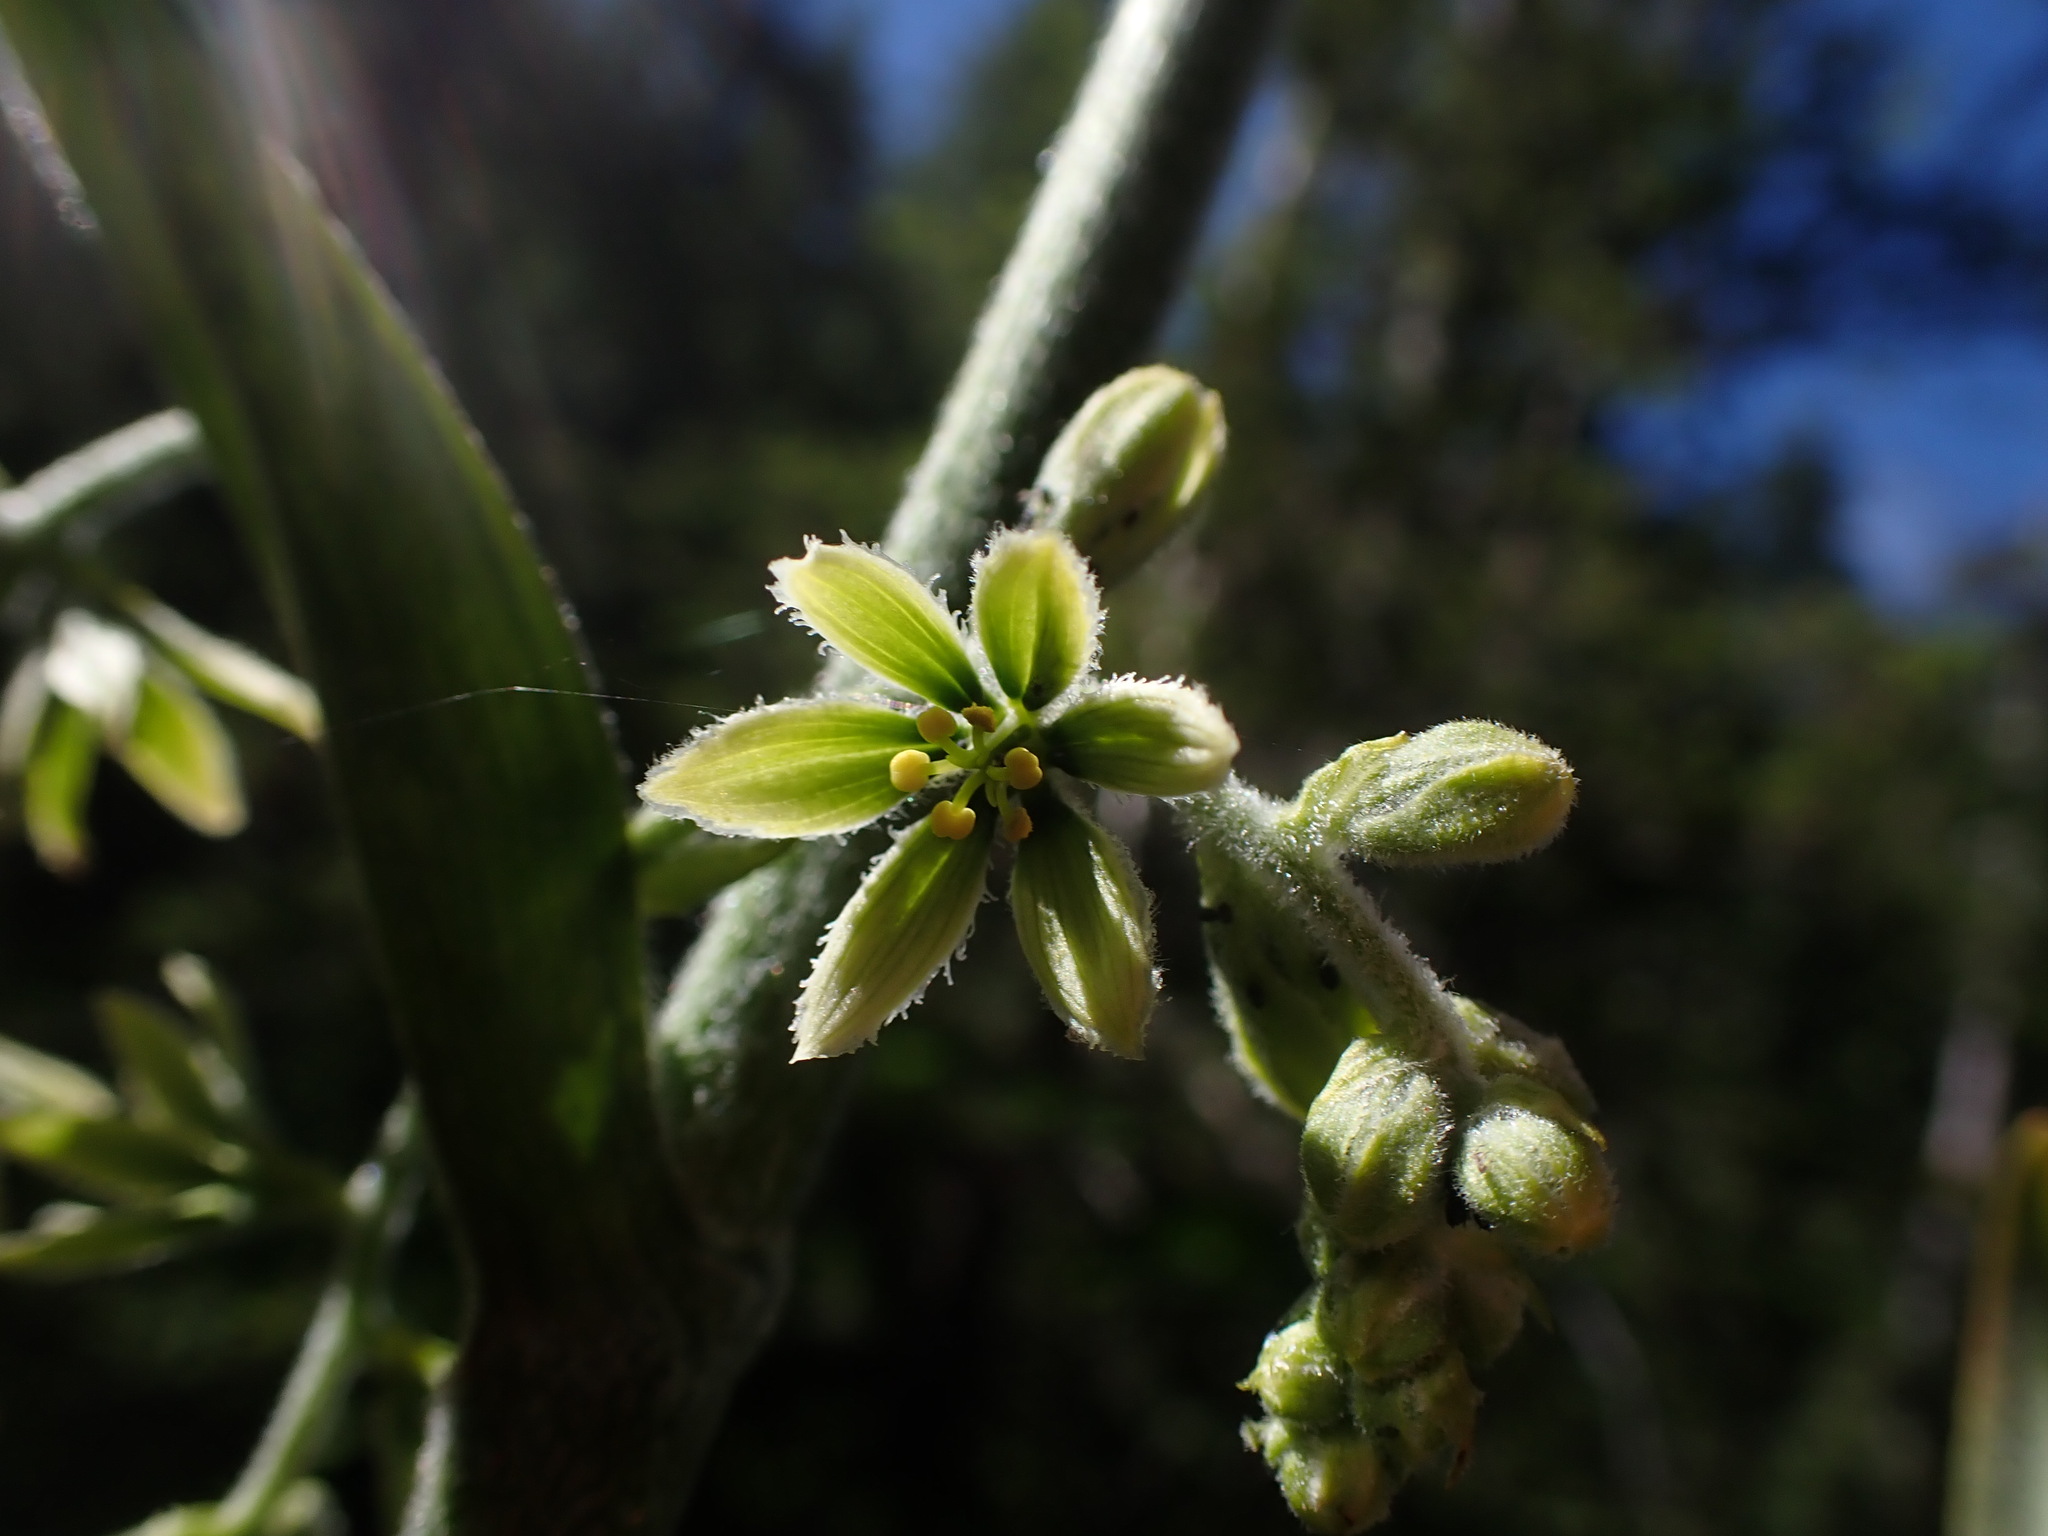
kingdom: Plantae
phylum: Tracheophyta
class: Liliopsida
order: Liliales
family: Melanthiaceae
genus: Veratrum
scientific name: Veratrum viride
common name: American false hellebore
